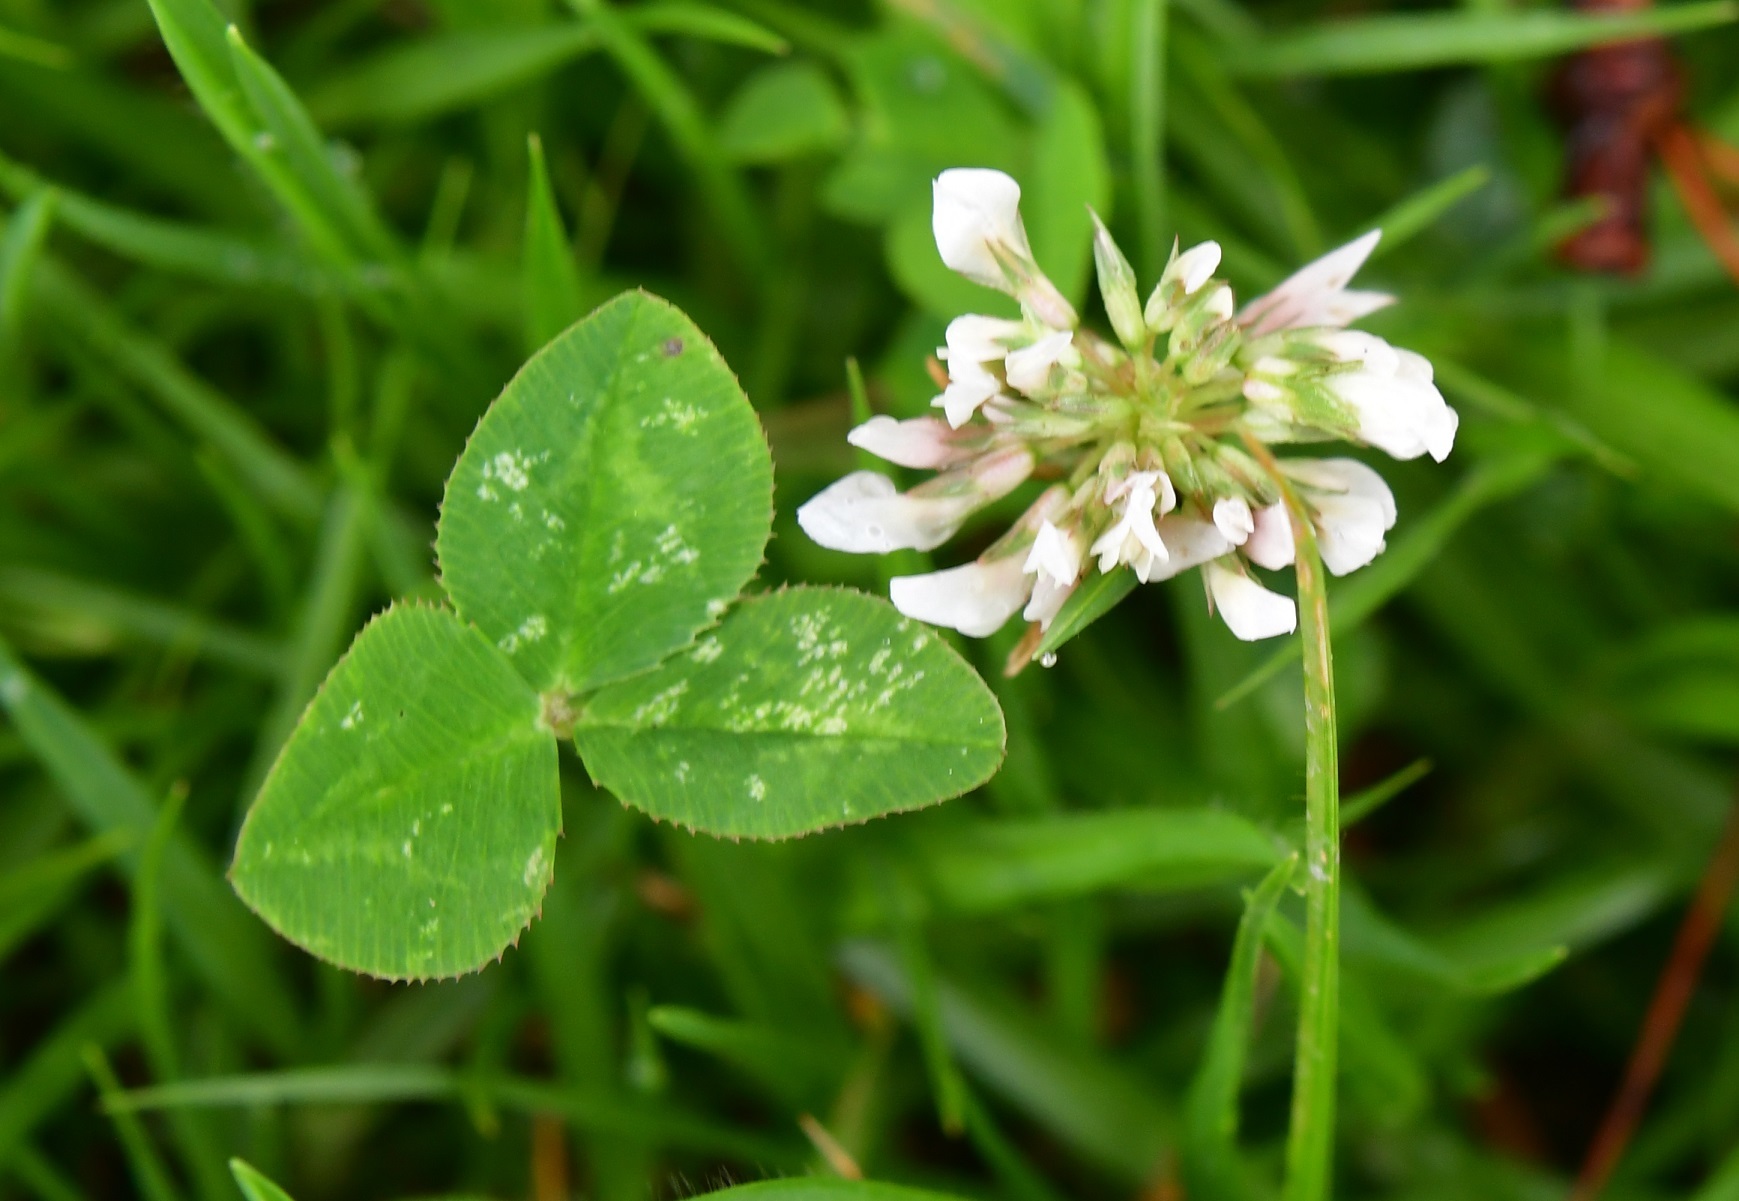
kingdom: Plantae
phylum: Tracheophyta
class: Magnoliopsida
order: Fabales
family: Fabaceae
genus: Trifolium
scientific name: Trifolium repens
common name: White clover
